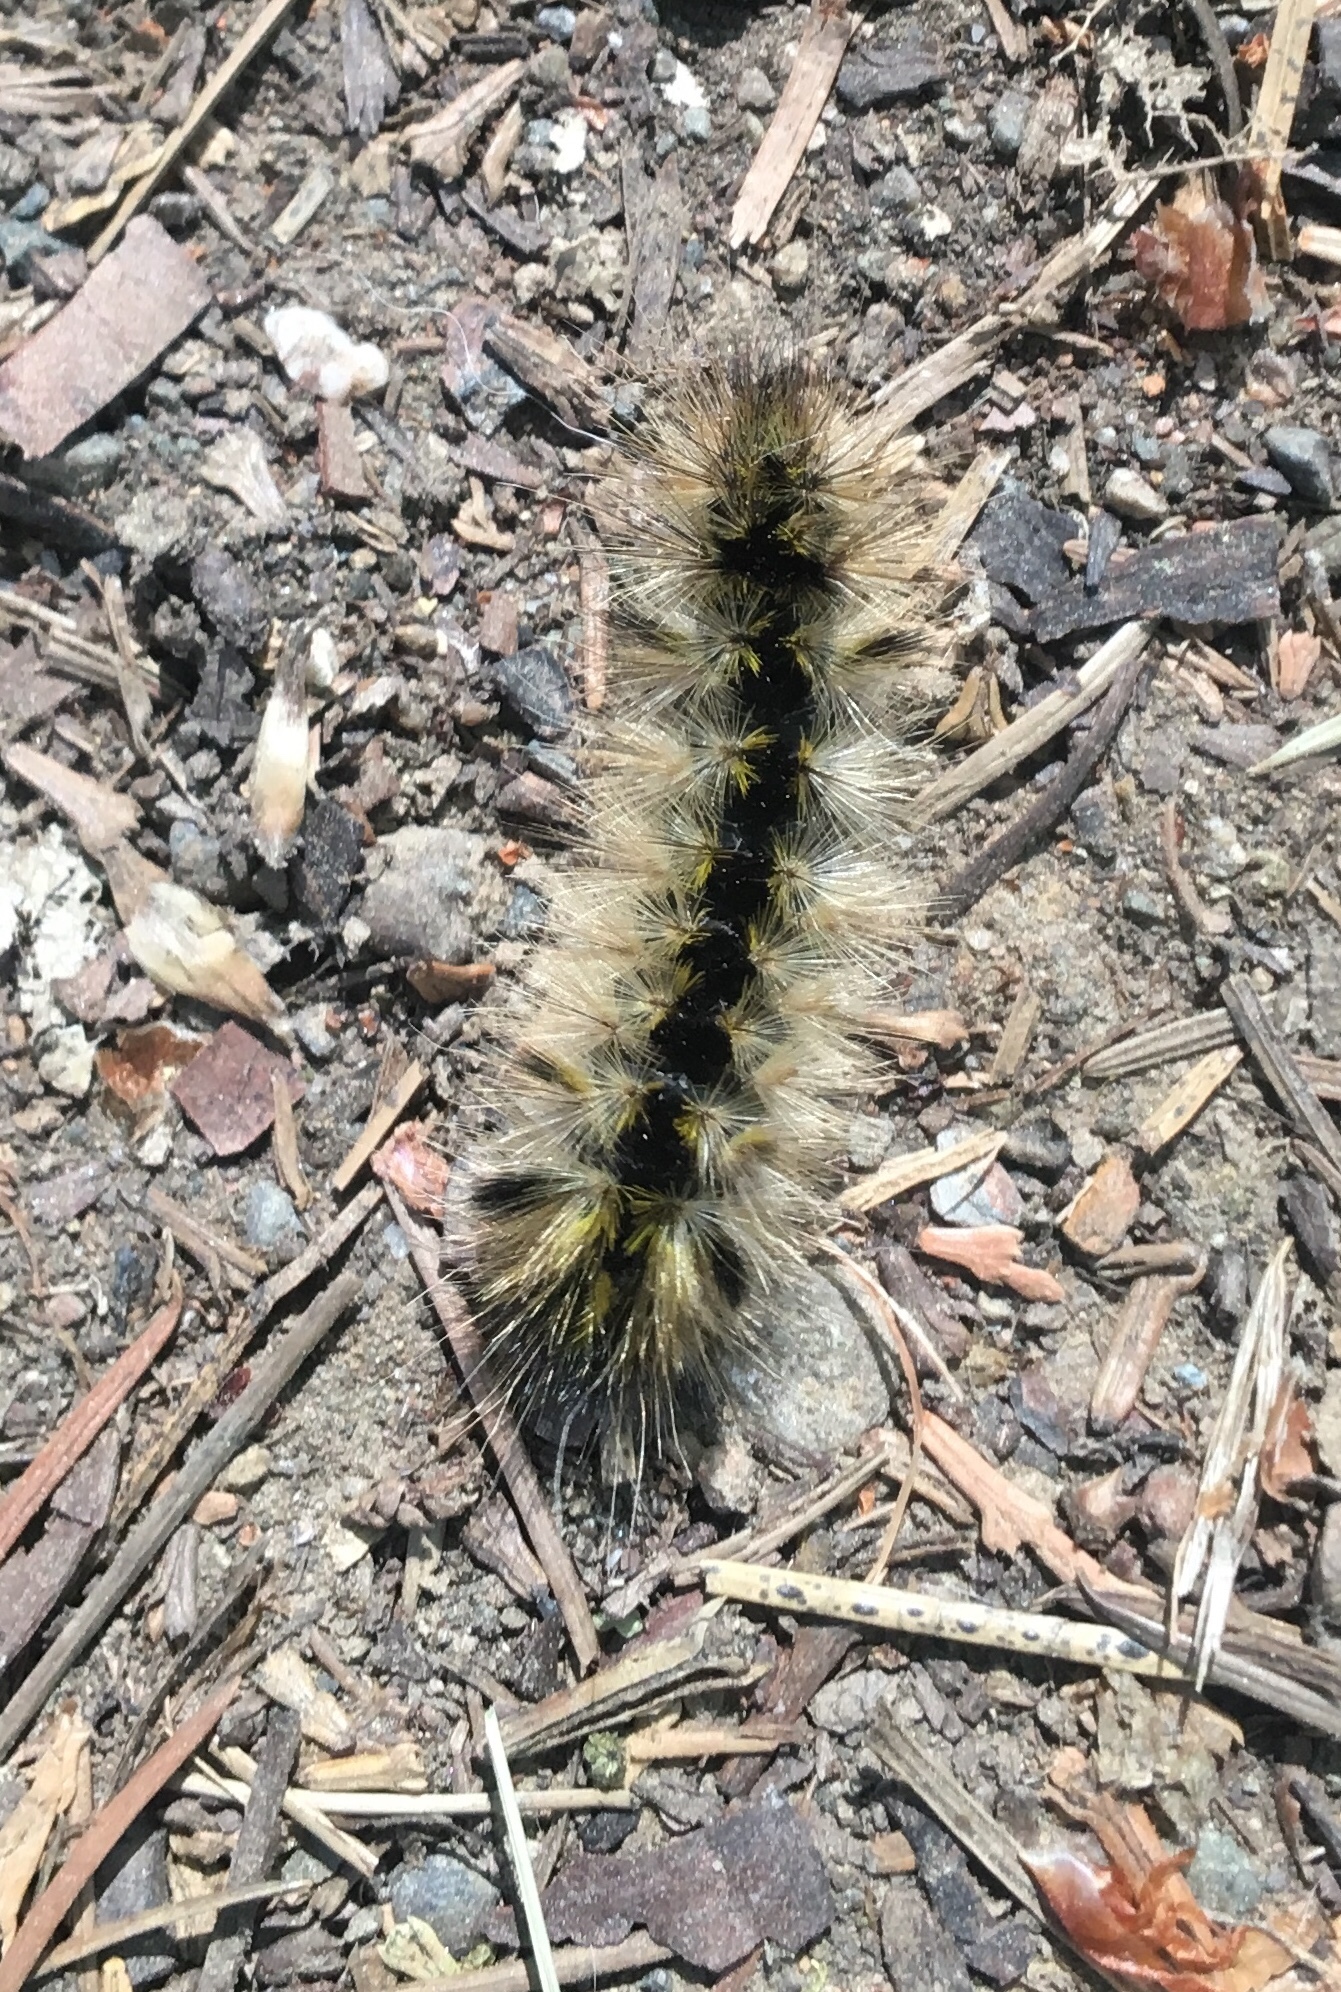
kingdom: Animalia
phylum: Arthropoda
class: Insecta
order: Lepidoptera
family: Erebidae
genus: Lophocampa
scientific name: Lophocampa argentata
